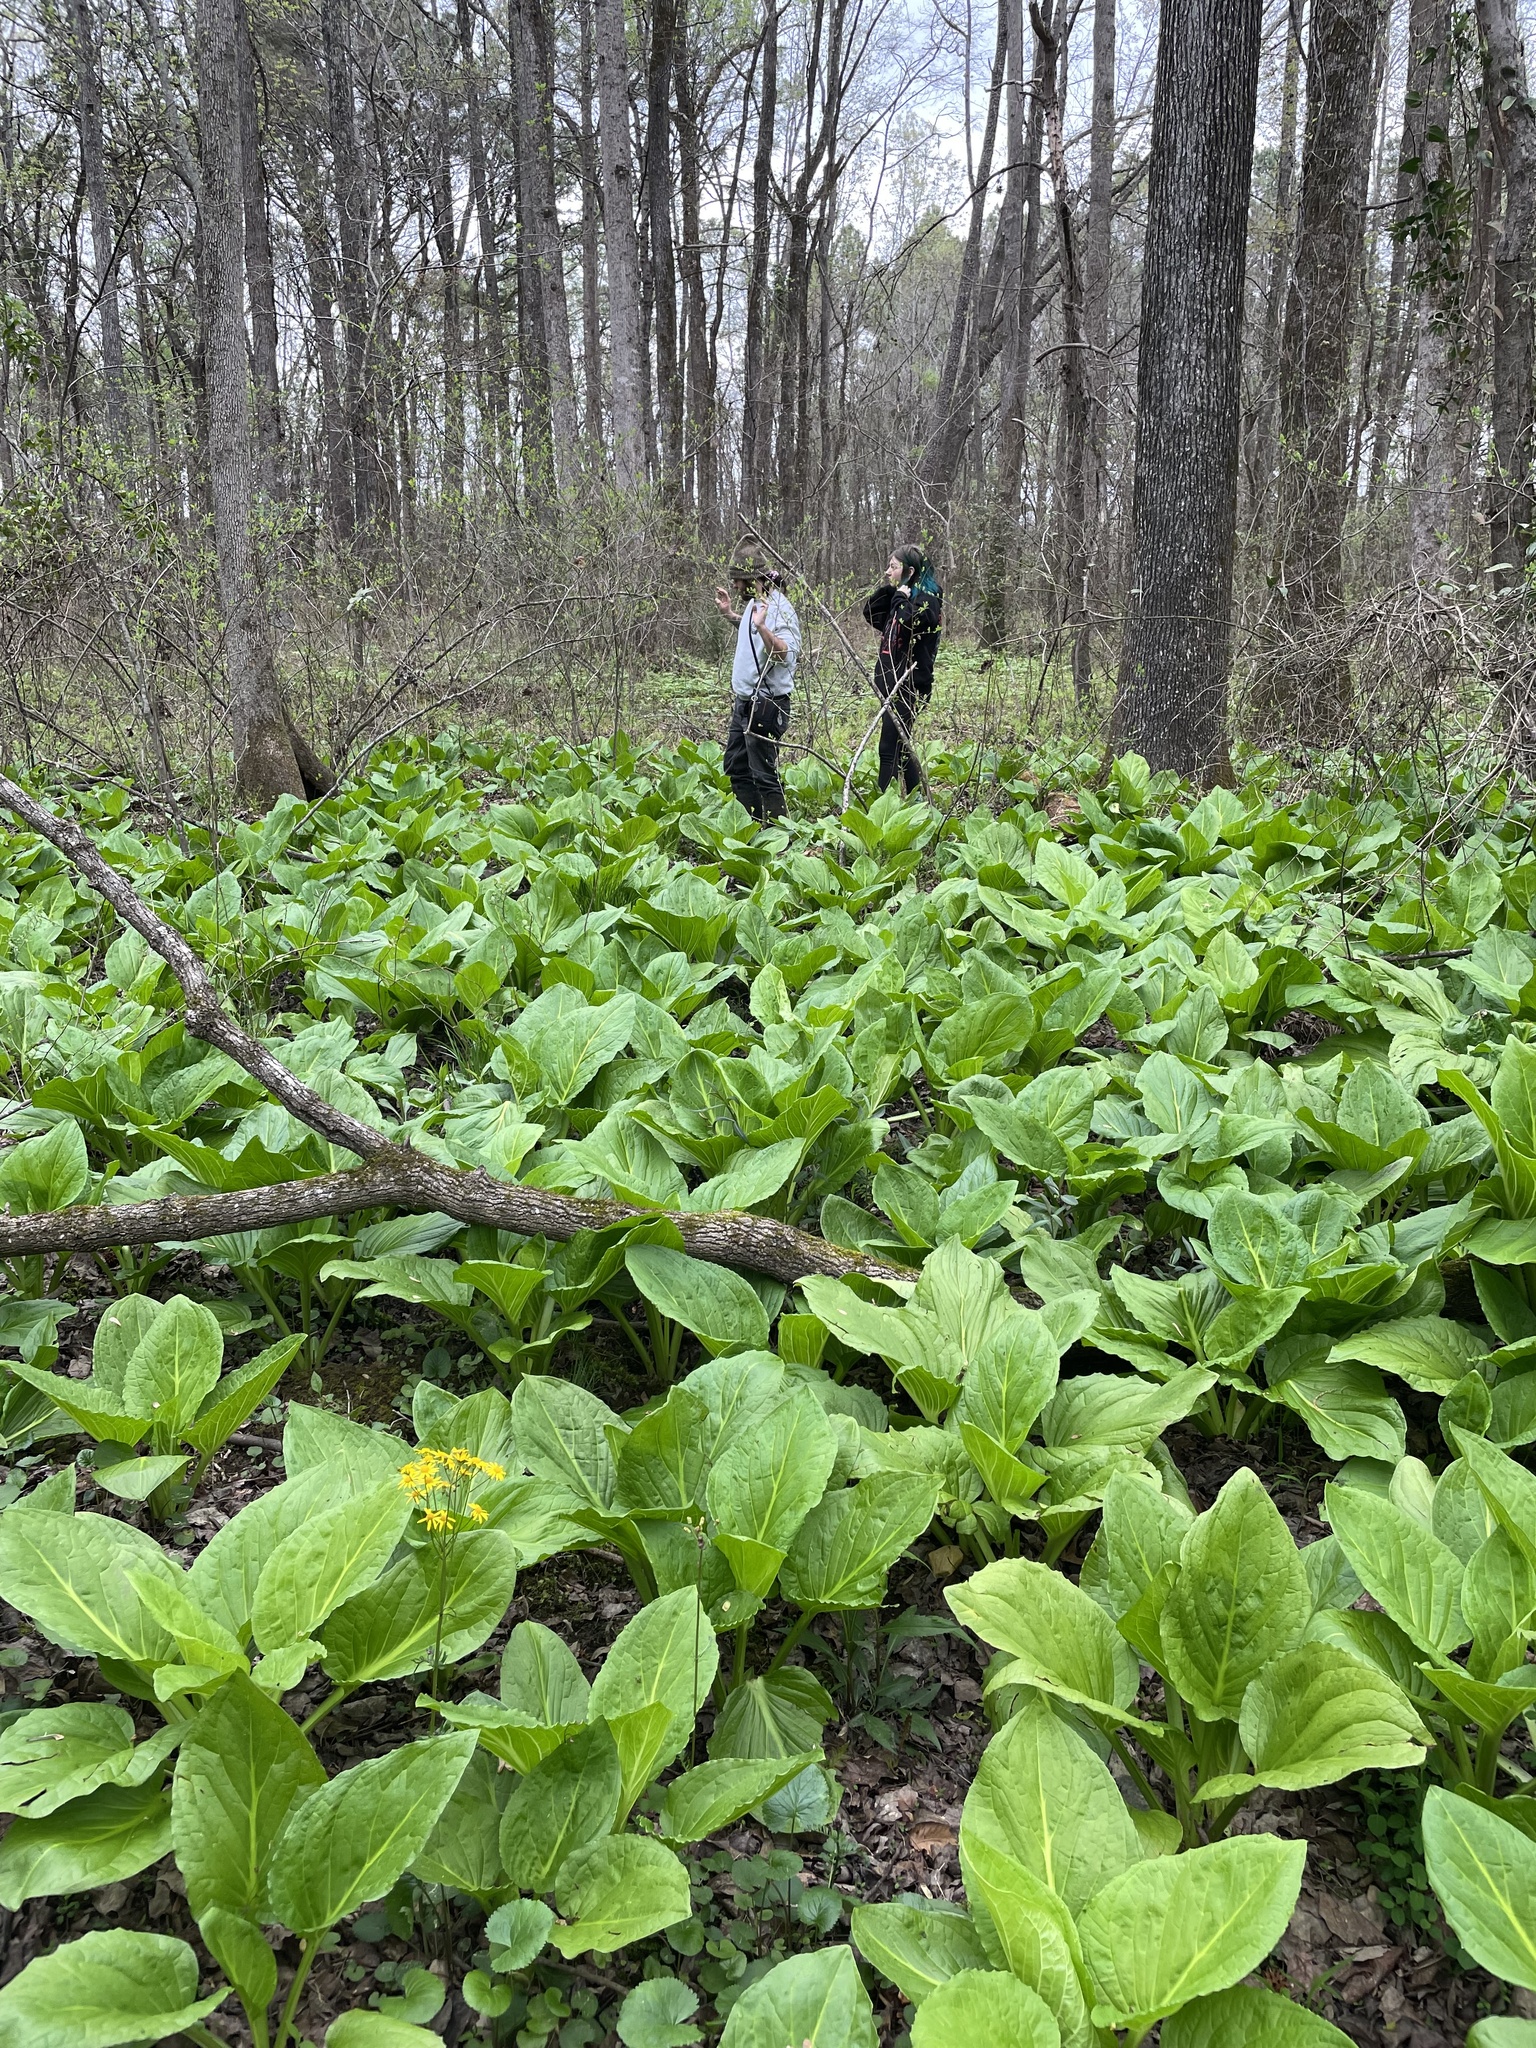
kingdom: Plantae
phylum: Tracheophyta
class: Liliopsida
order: Alismatales
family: Araceae
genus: Symplocarpus
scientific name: Symplocarpus foetidus
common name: Eastern skunk cabbage
